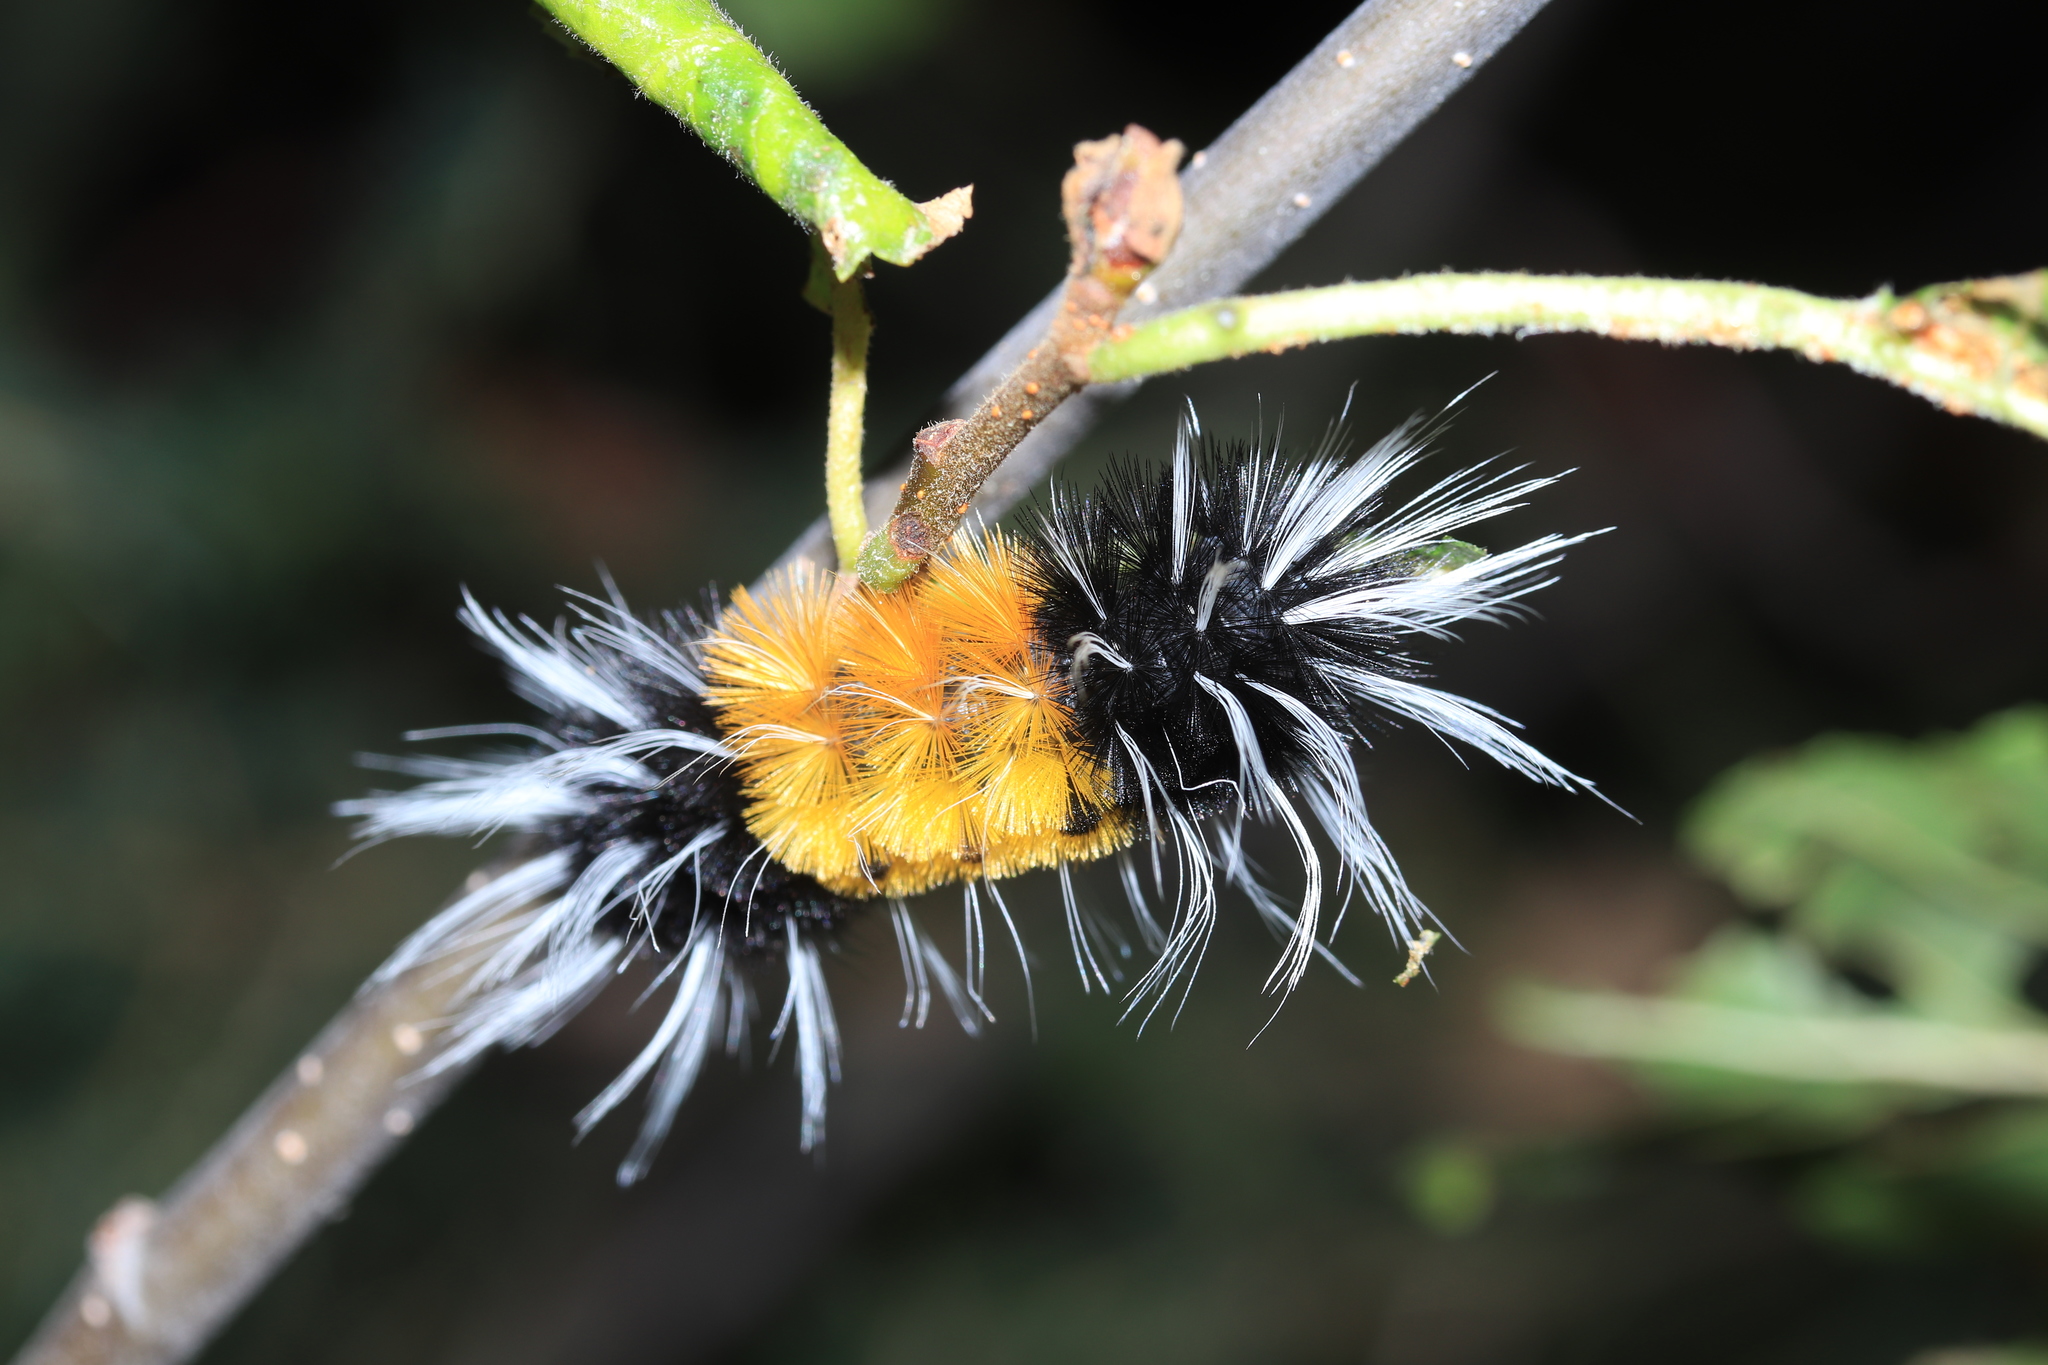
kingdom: Animalia
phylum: Arthropoda
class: Insecta
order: Lepidoptera
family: Erebidae
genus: Lophocampa
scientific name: Lophocampa maculata
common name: Spotted tussock moth
